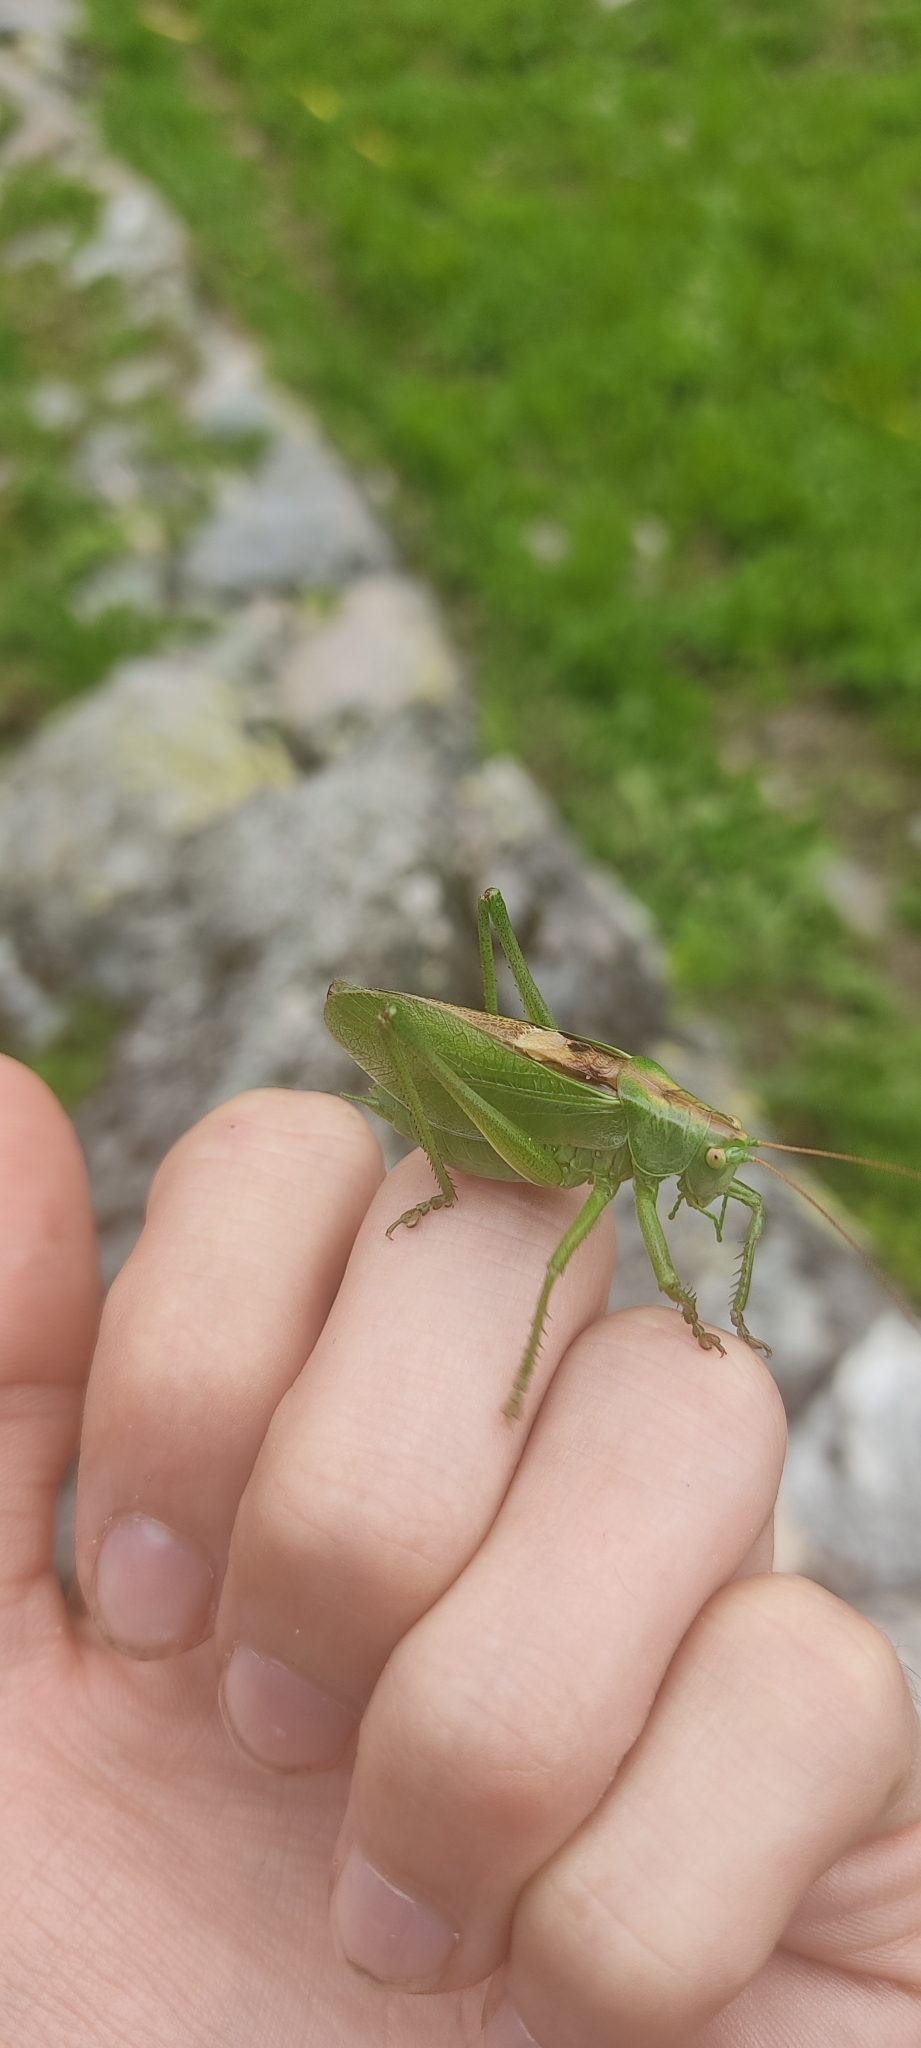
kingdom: Animalia
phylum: Arthropoda
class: Insecta
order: Orthoptera
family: Tettigoniidae
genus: Tettigonia
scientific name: Tettigonia cantans
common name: Upland green bush-cricket
